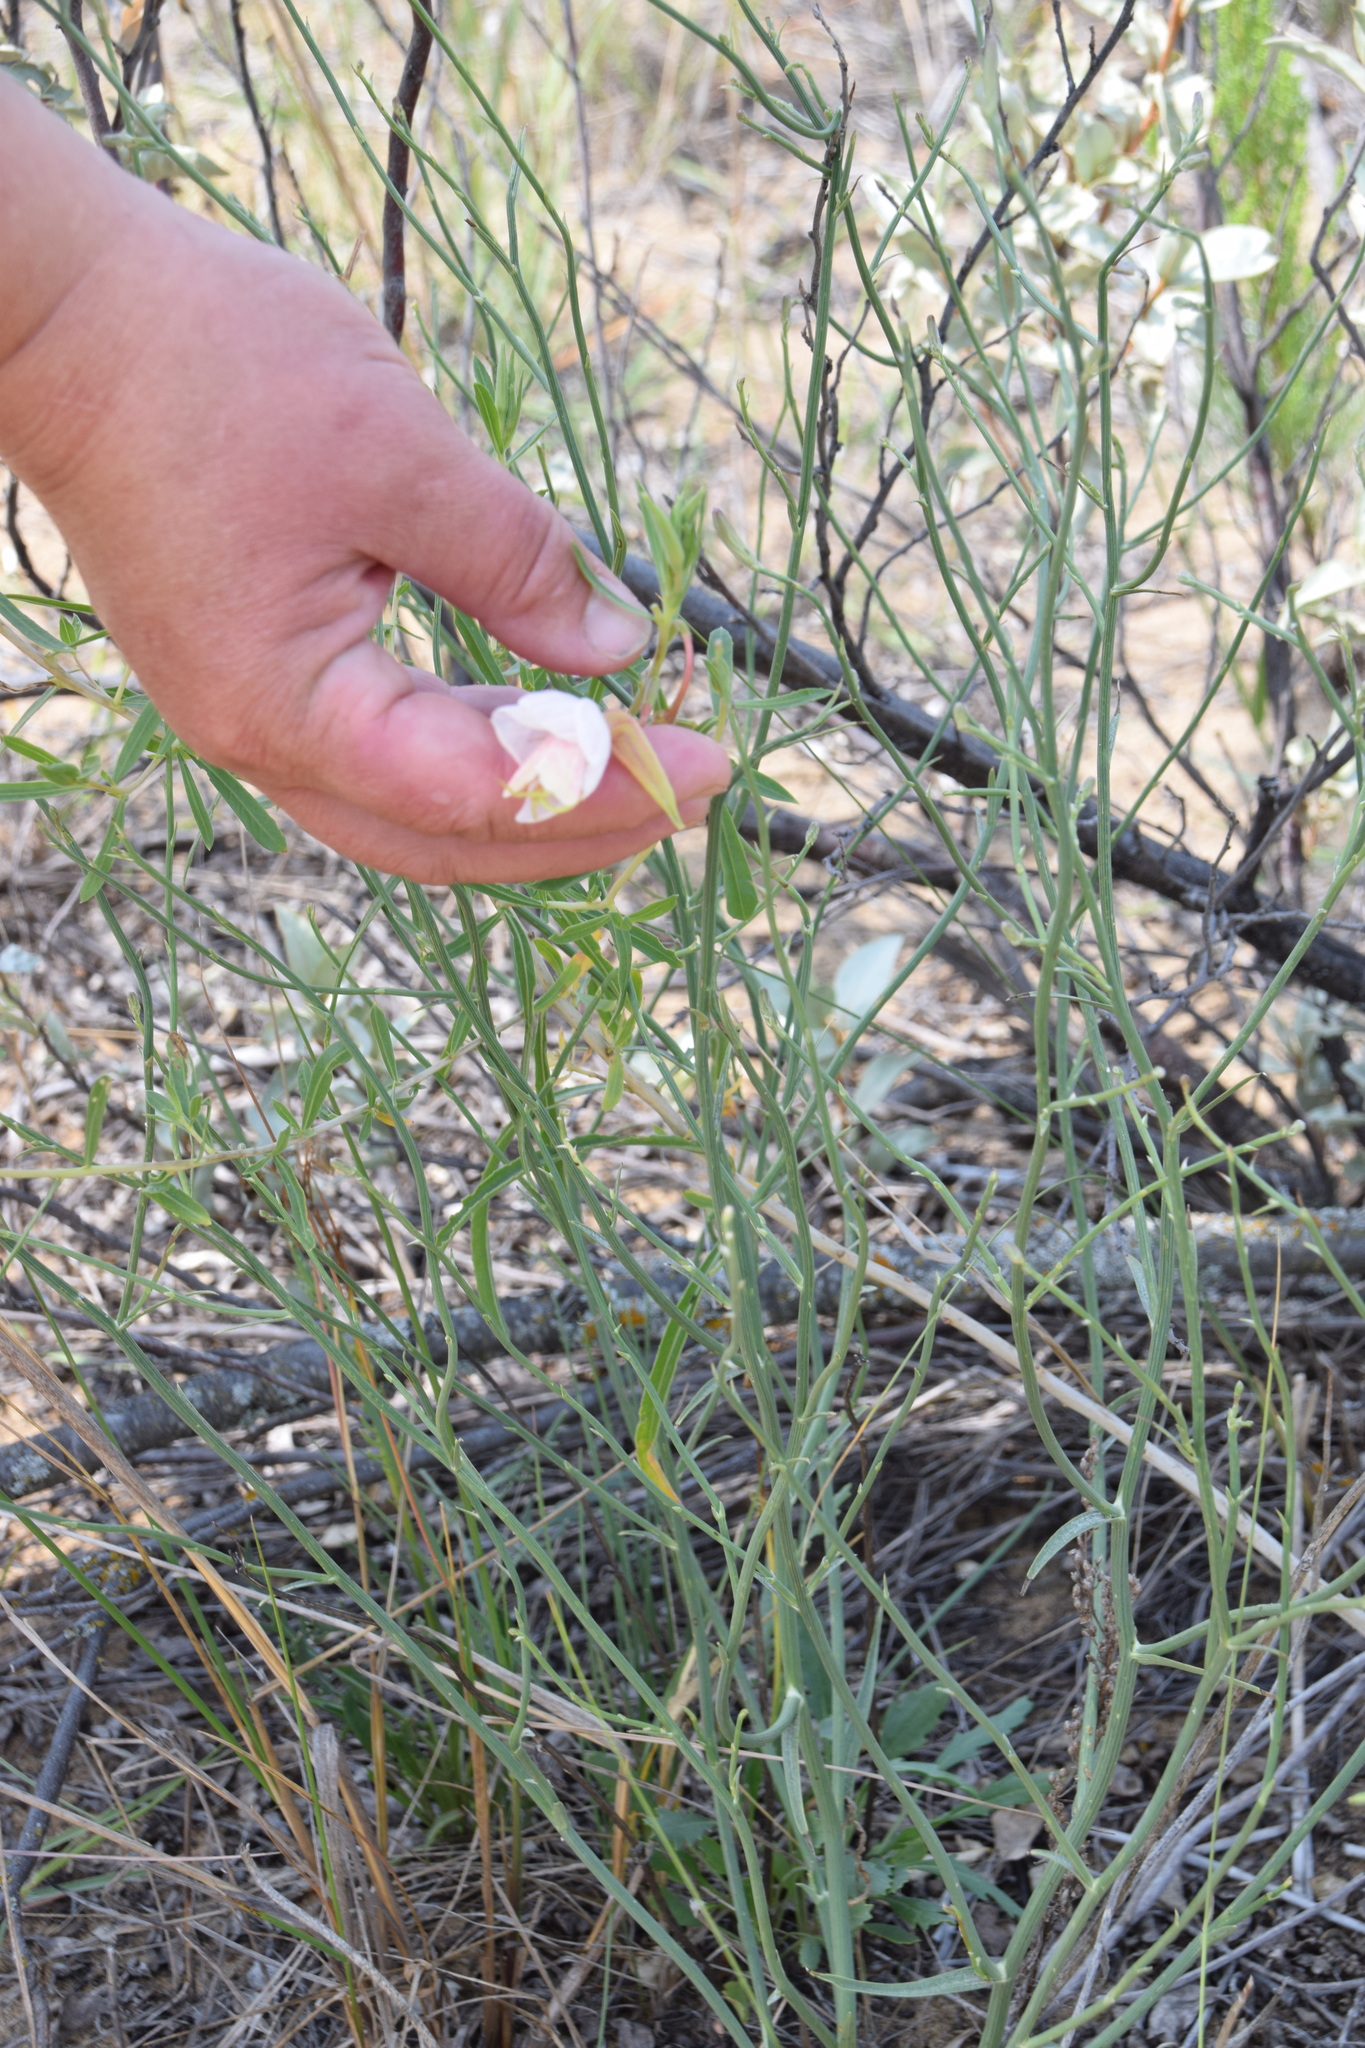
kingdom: Plantae
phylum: Tracheophyta
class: Magnoliopsida
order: Myrtales
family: Onagraceae
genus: Oenothera
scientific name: Oenothera nuttallii
